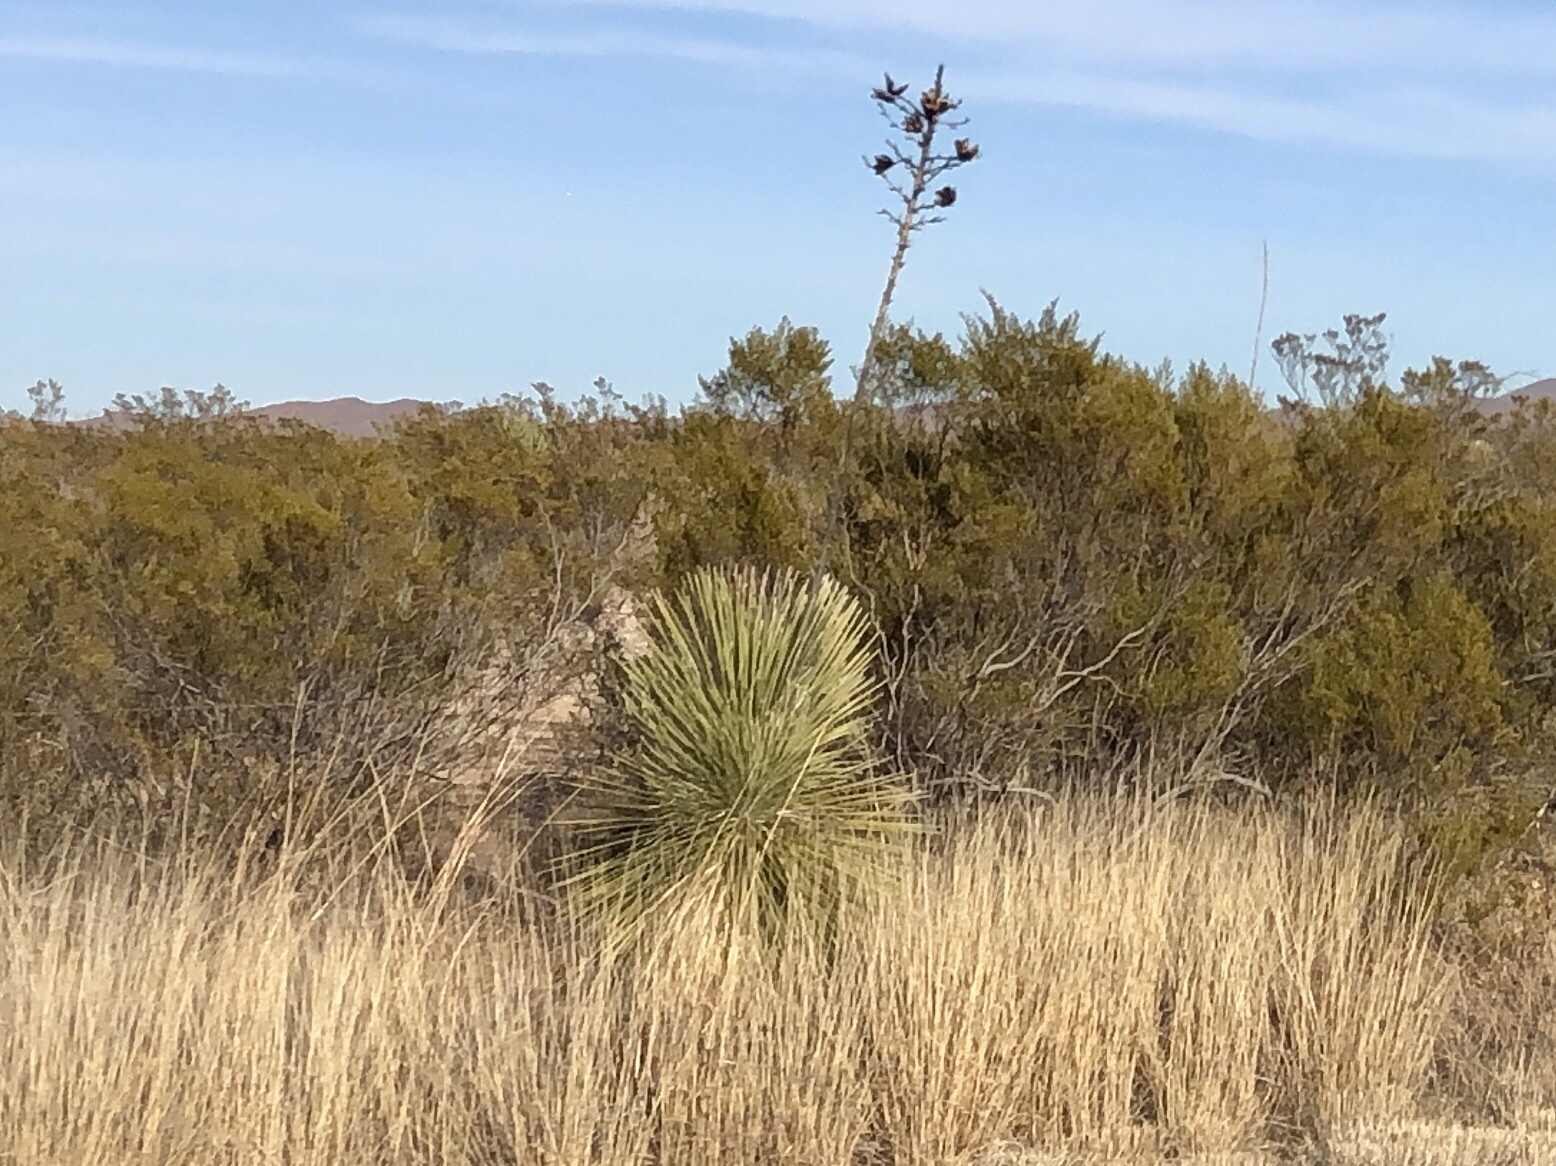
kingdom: Plantae
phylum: Tracheophyta
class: Liliopsida
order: Asparagales
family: Asparagaceae
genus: Yucca
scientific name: Yucca elata
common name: Palmella
